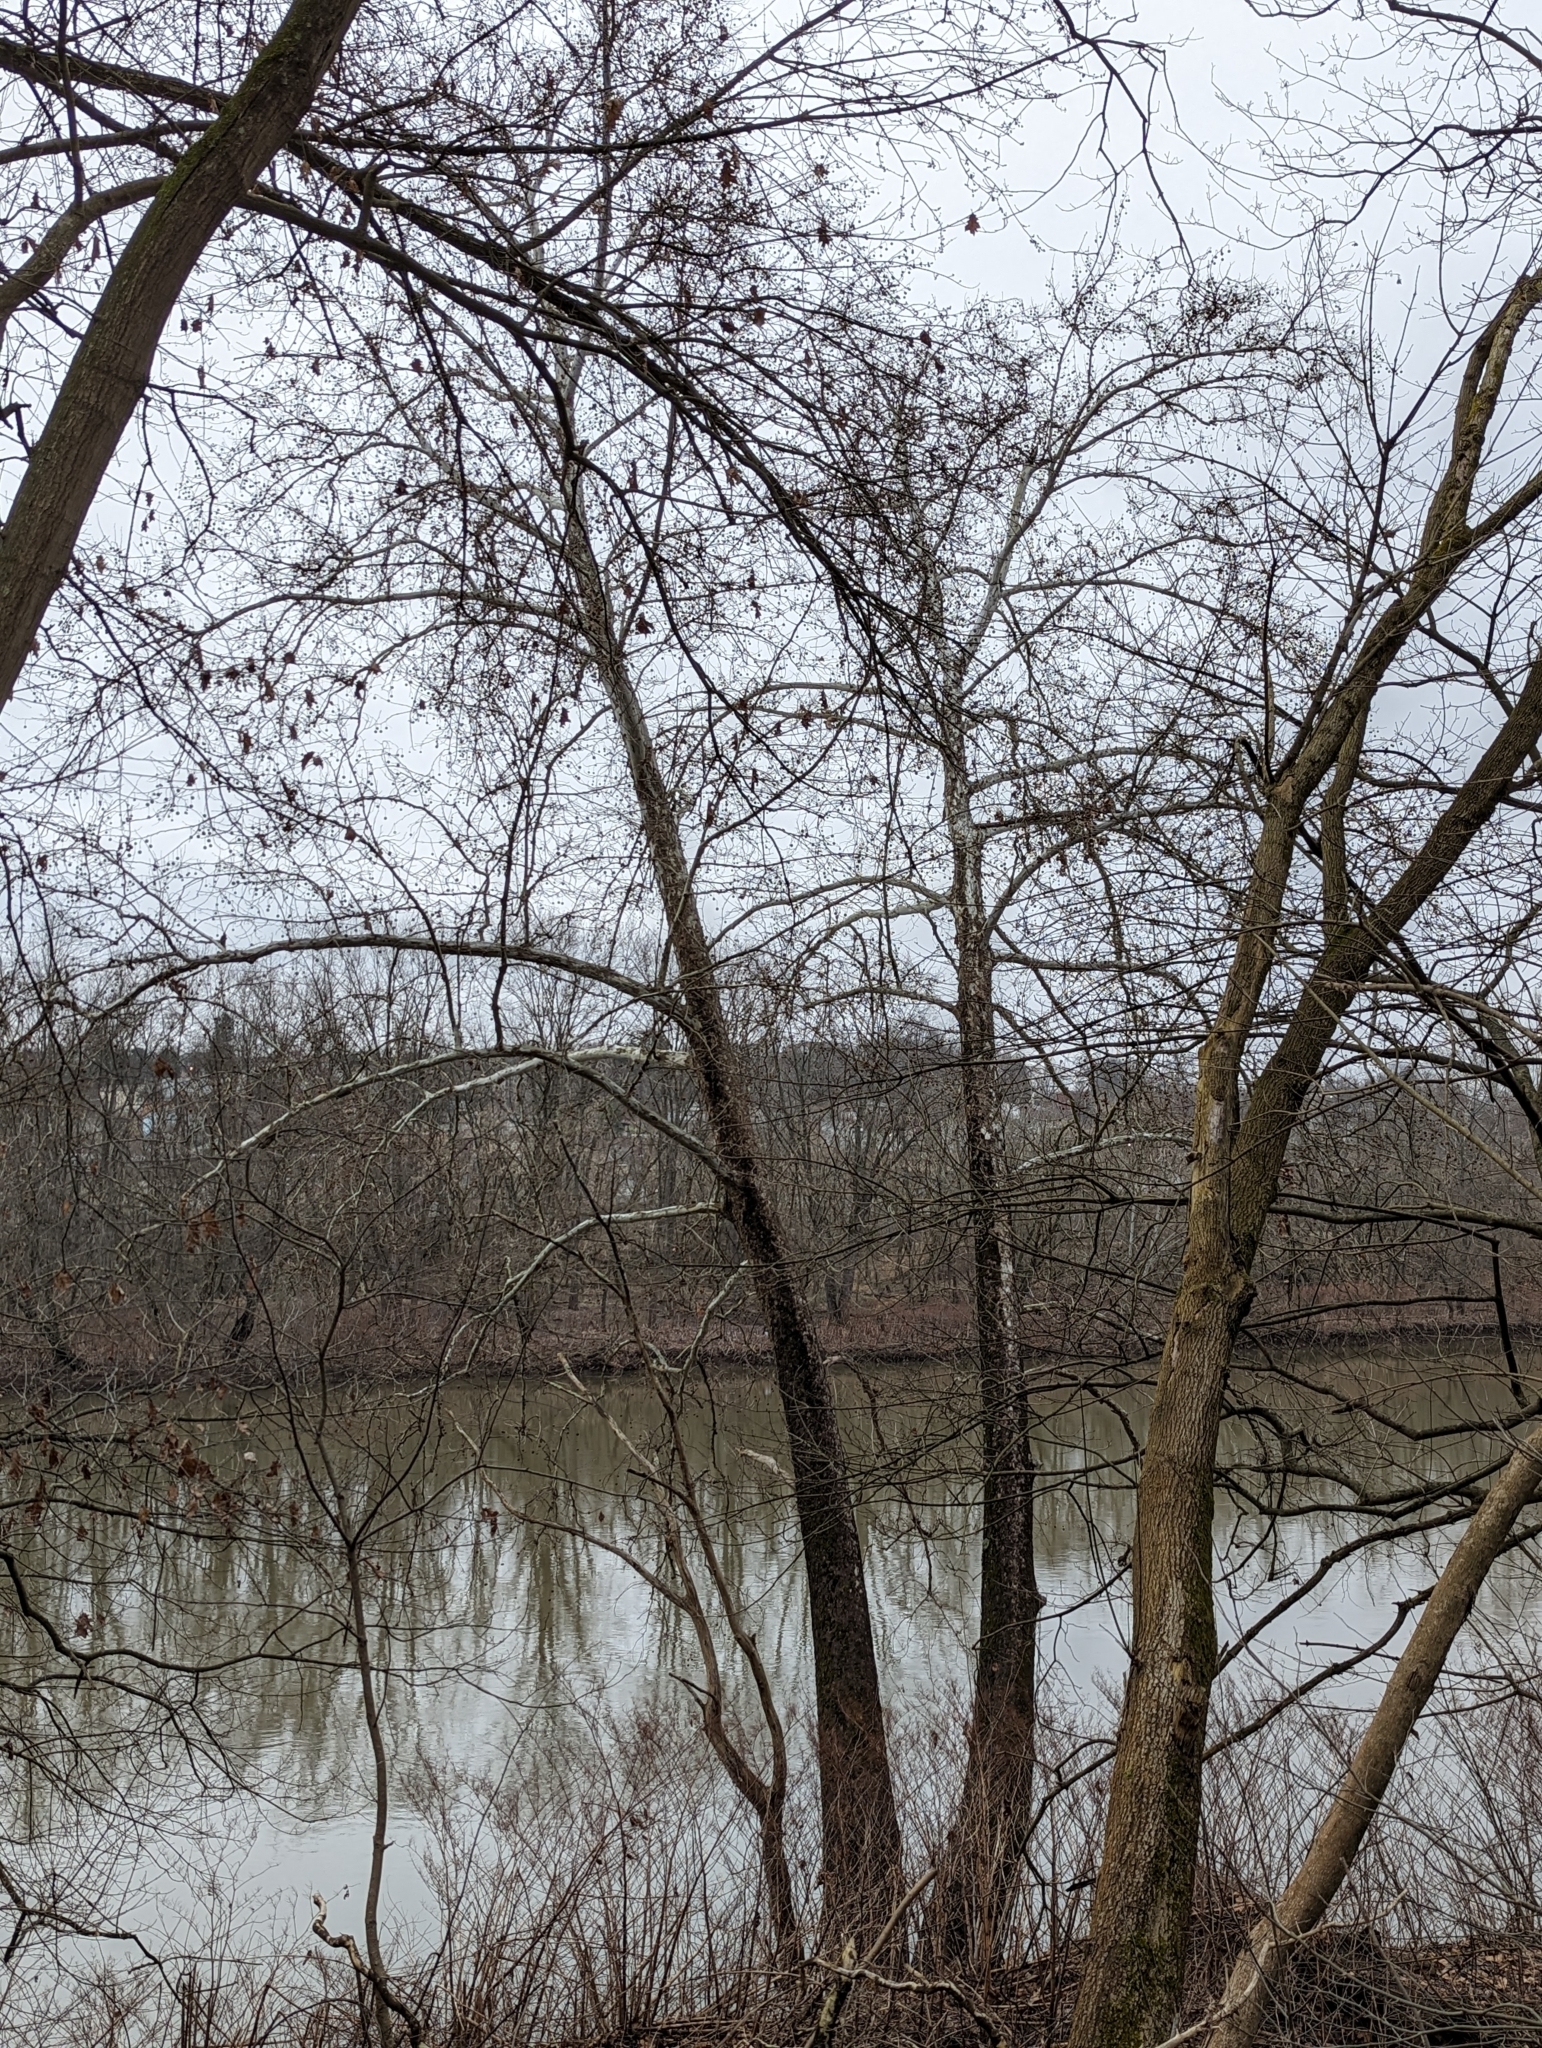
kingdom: Plantae
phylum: Tracheophyta
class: Magnoliopsida
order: Proteales
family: Platanaceae
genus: Platanus
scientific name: Platanus occidentalis
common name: American sycamore
